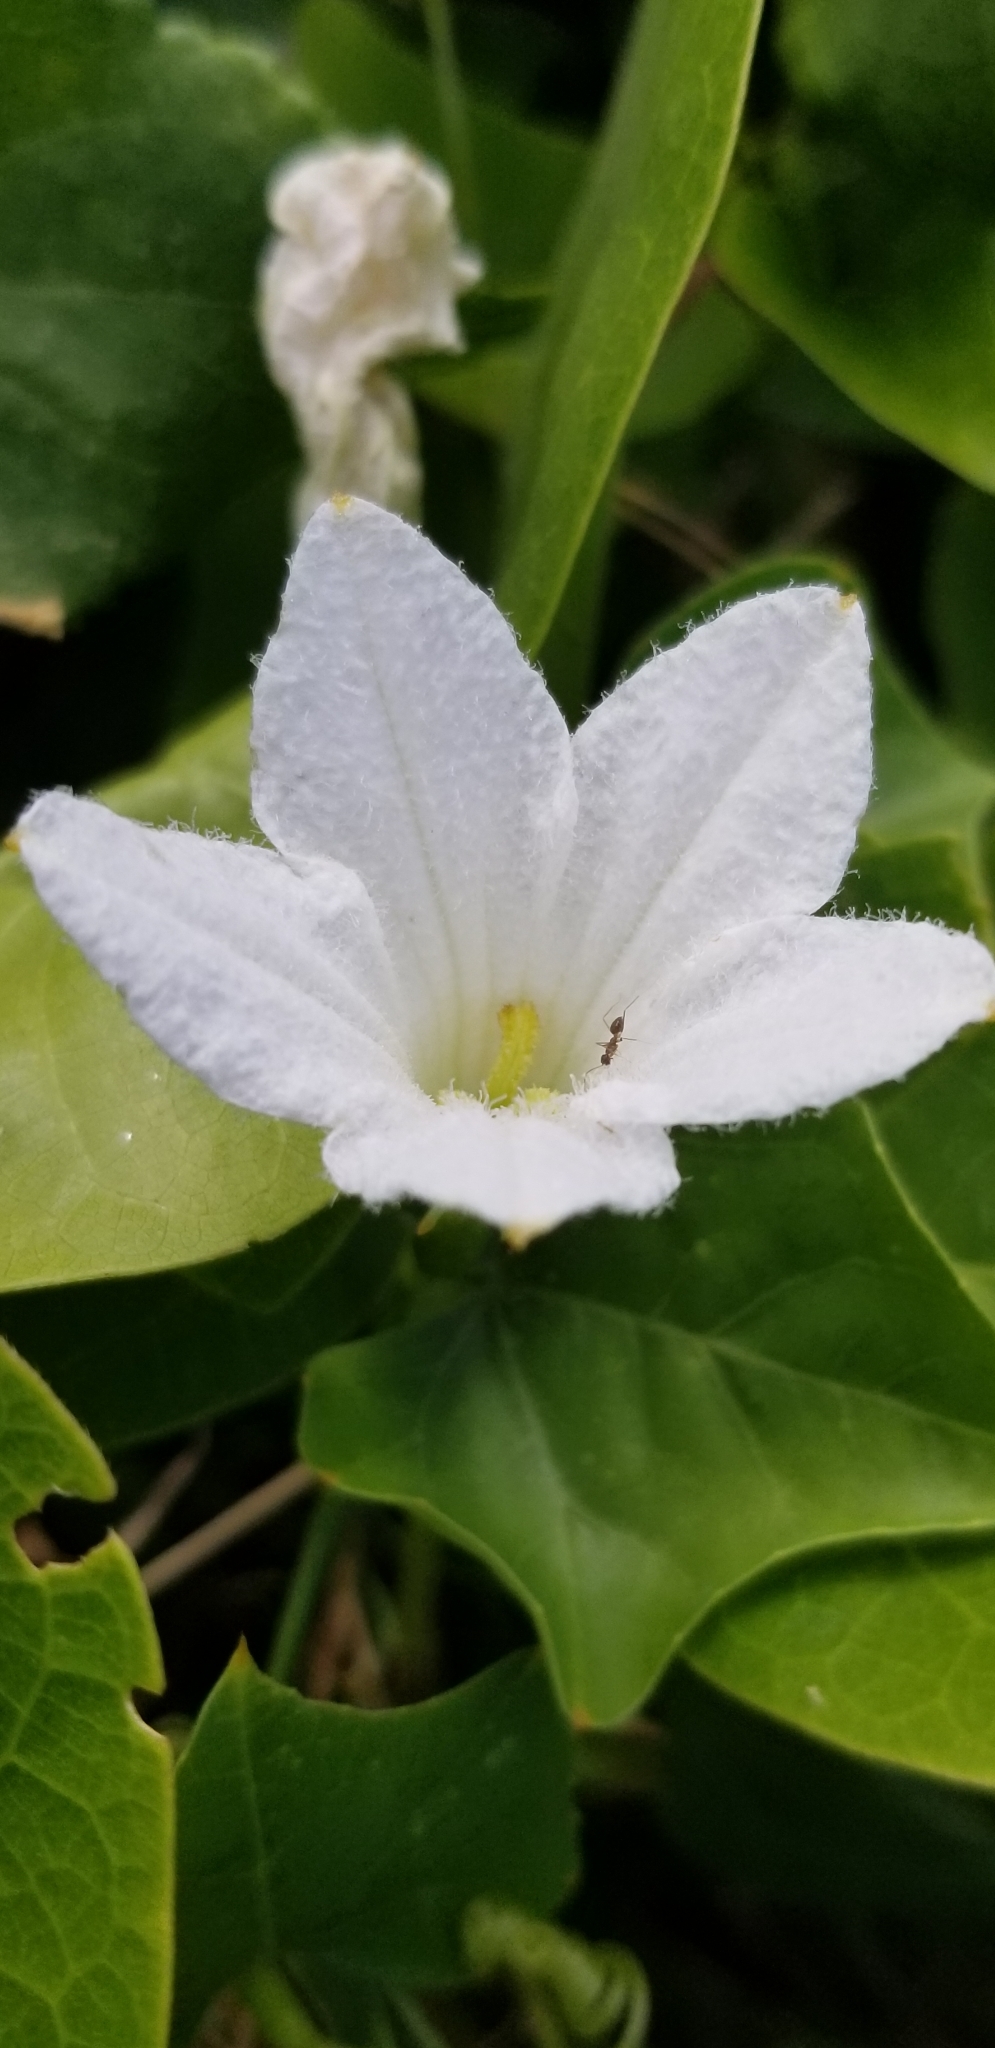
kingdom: Plantae
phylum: Tracheophyta
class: Magnoliopsida
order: Cucurbitales
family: Cucurbitaceae
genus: Coccinia
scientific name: Coccinia grandis
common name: Ivy gourd
